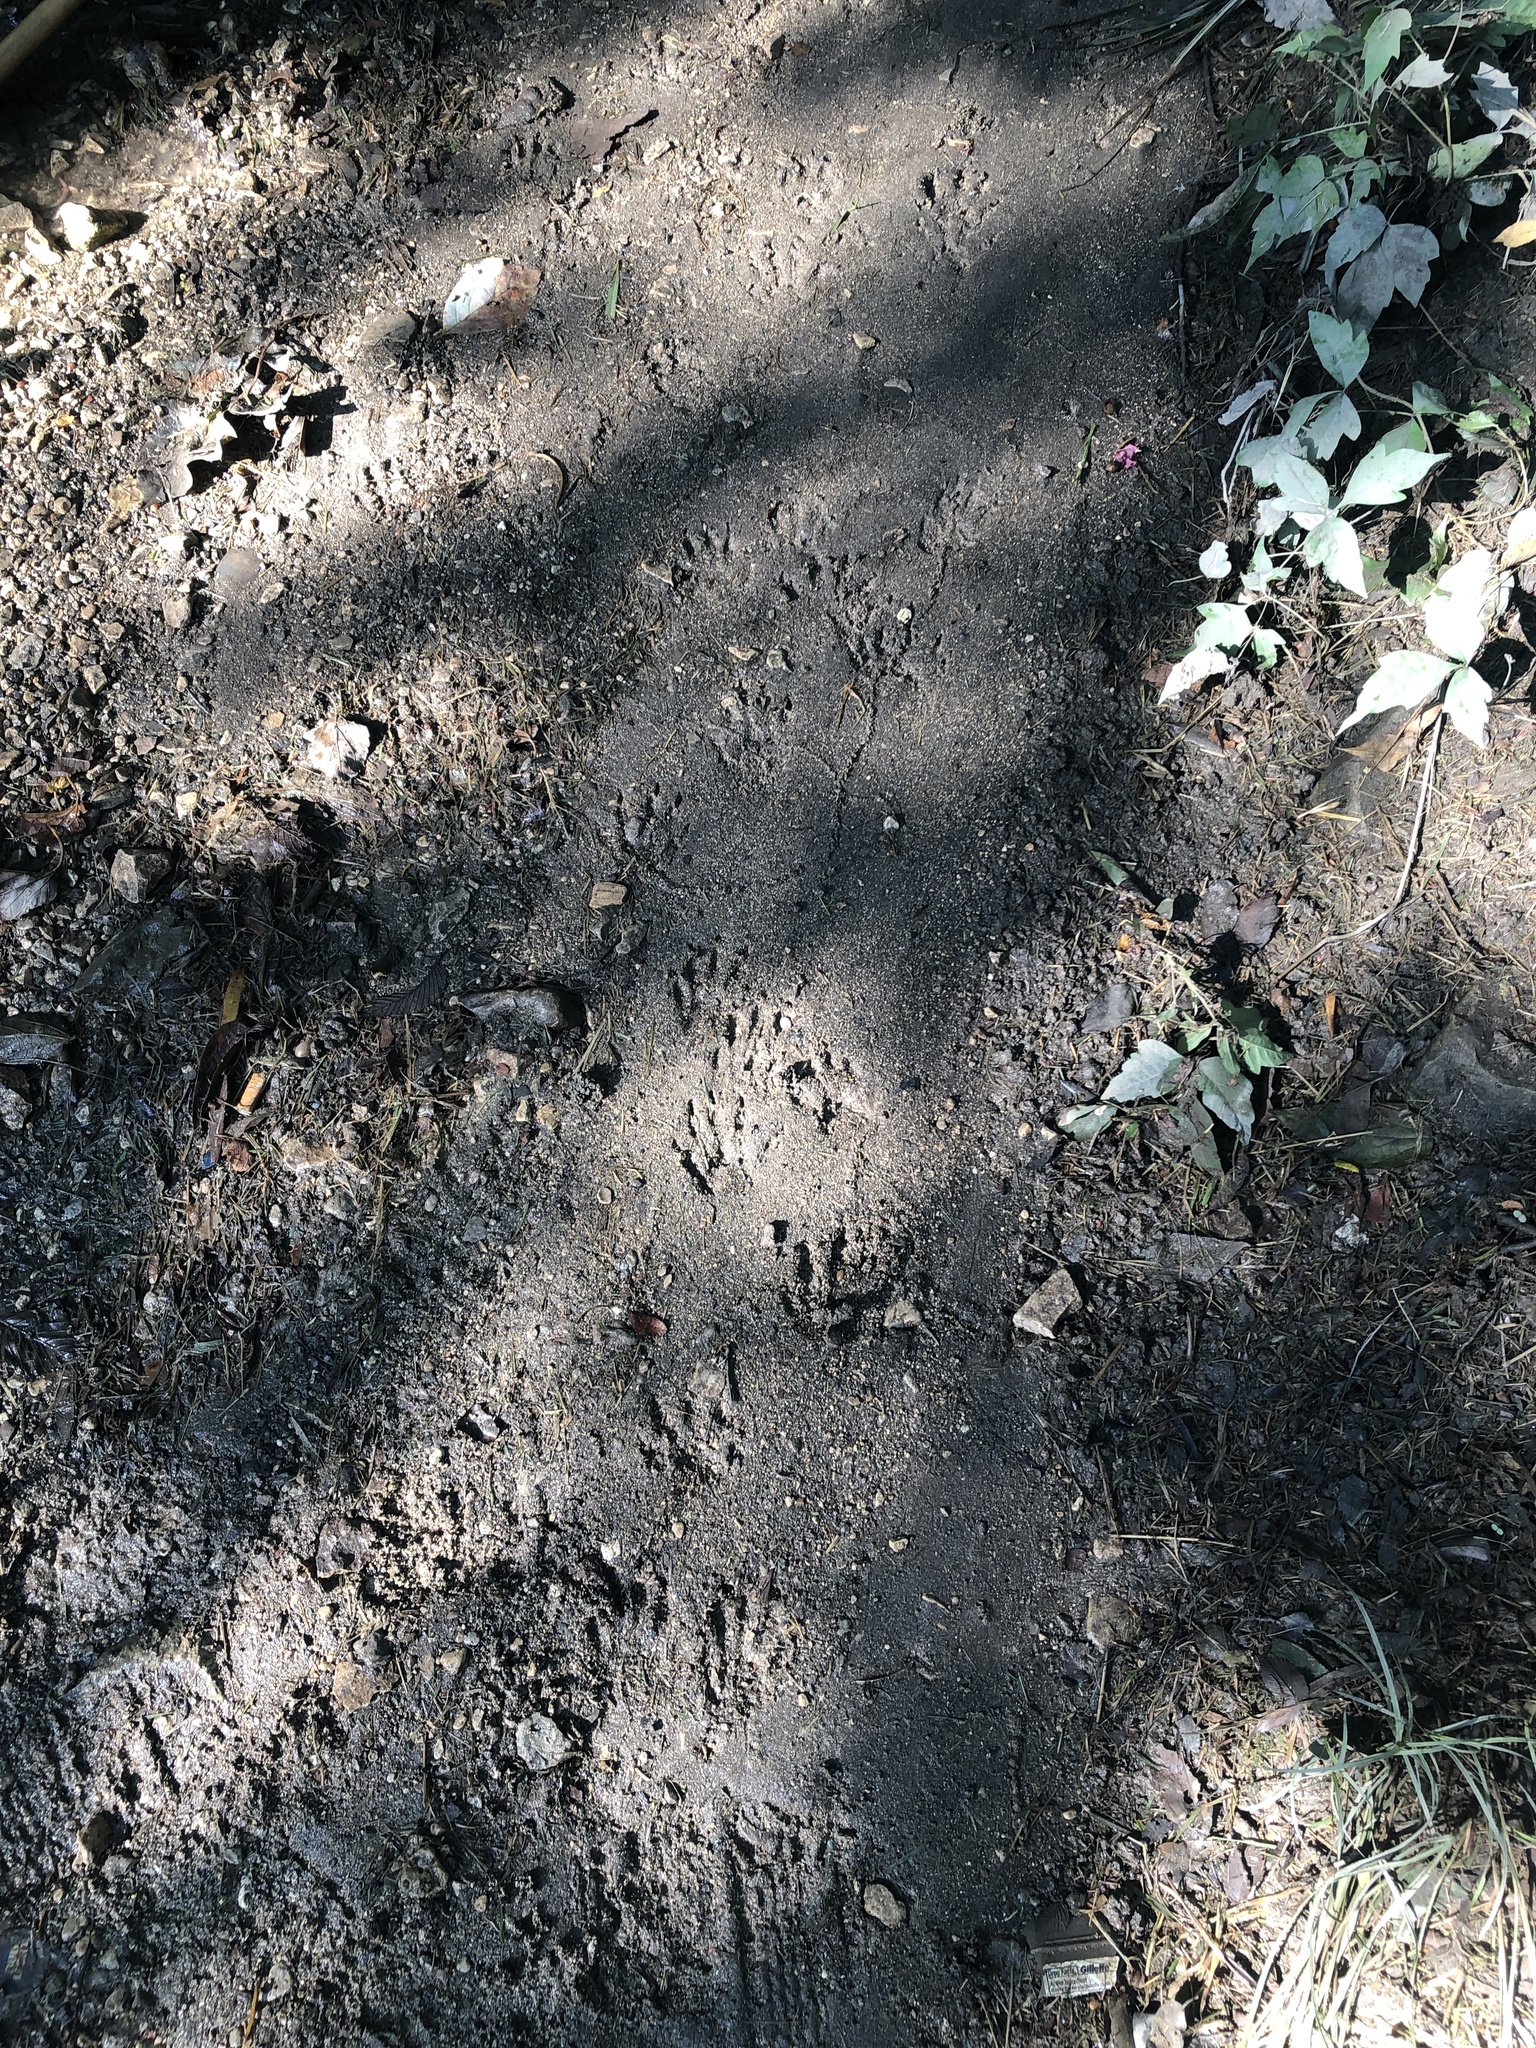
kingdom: Animalia
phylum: Chordata
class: Mammalia
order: Carnivora
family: Procyonidae
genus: Procyon
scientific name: Procyon lotor
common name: Raccoon
